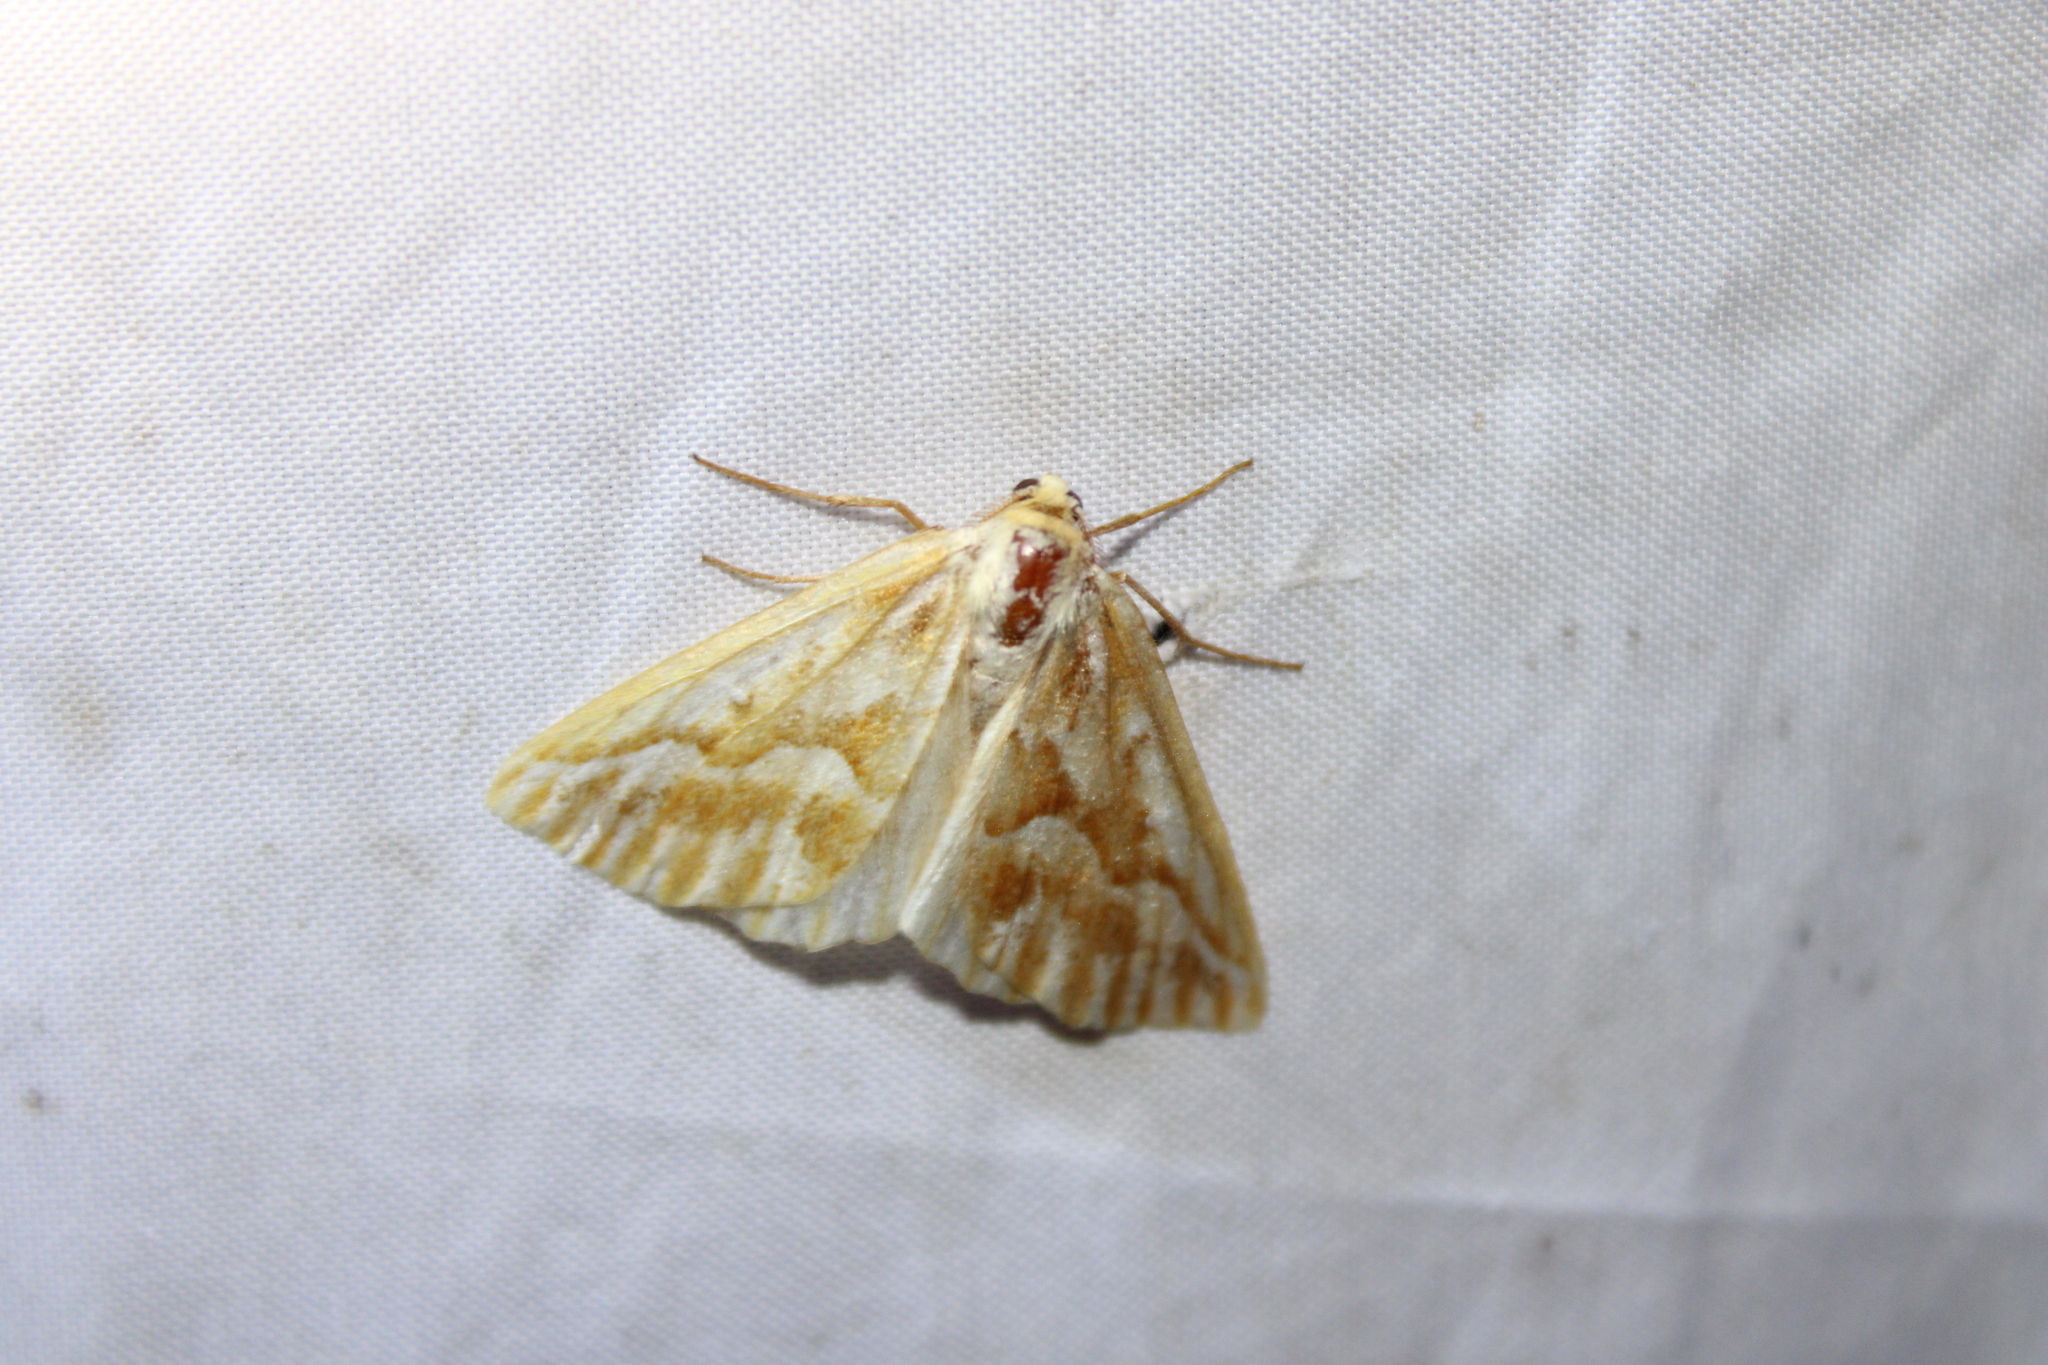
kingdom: Animalia
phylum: Arthropoda
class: Insecta
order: Lepidoptera
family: Geometridae
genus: Caripeta
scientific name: Caripeta piniata
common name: Northern pine looper moth
